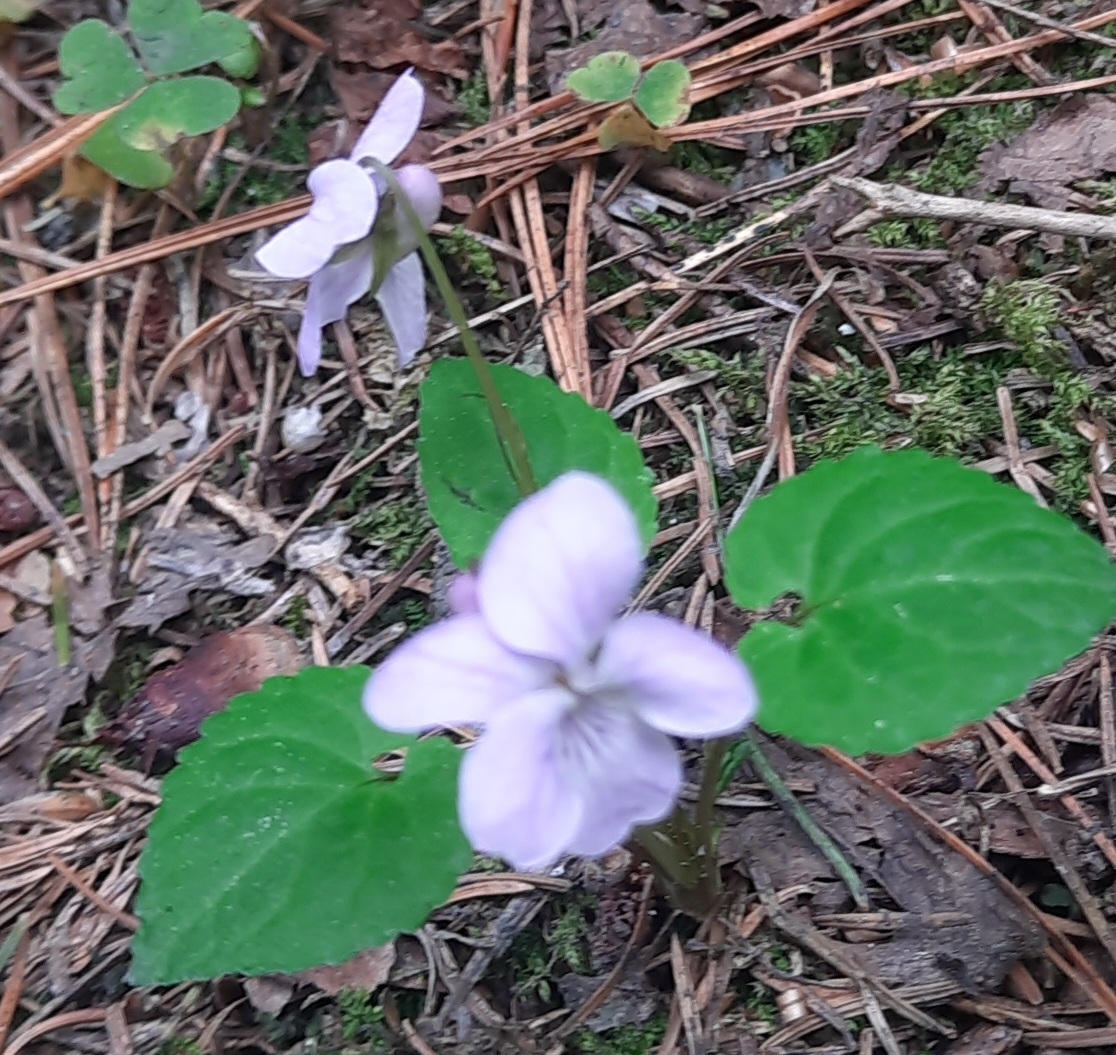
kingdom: Plantae
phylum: Tracheophyta
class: Magnoliopsida
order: Malpighiales
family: Violaceae
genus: Viola
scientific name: Viola selkirkii
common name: Selkirk's violet
